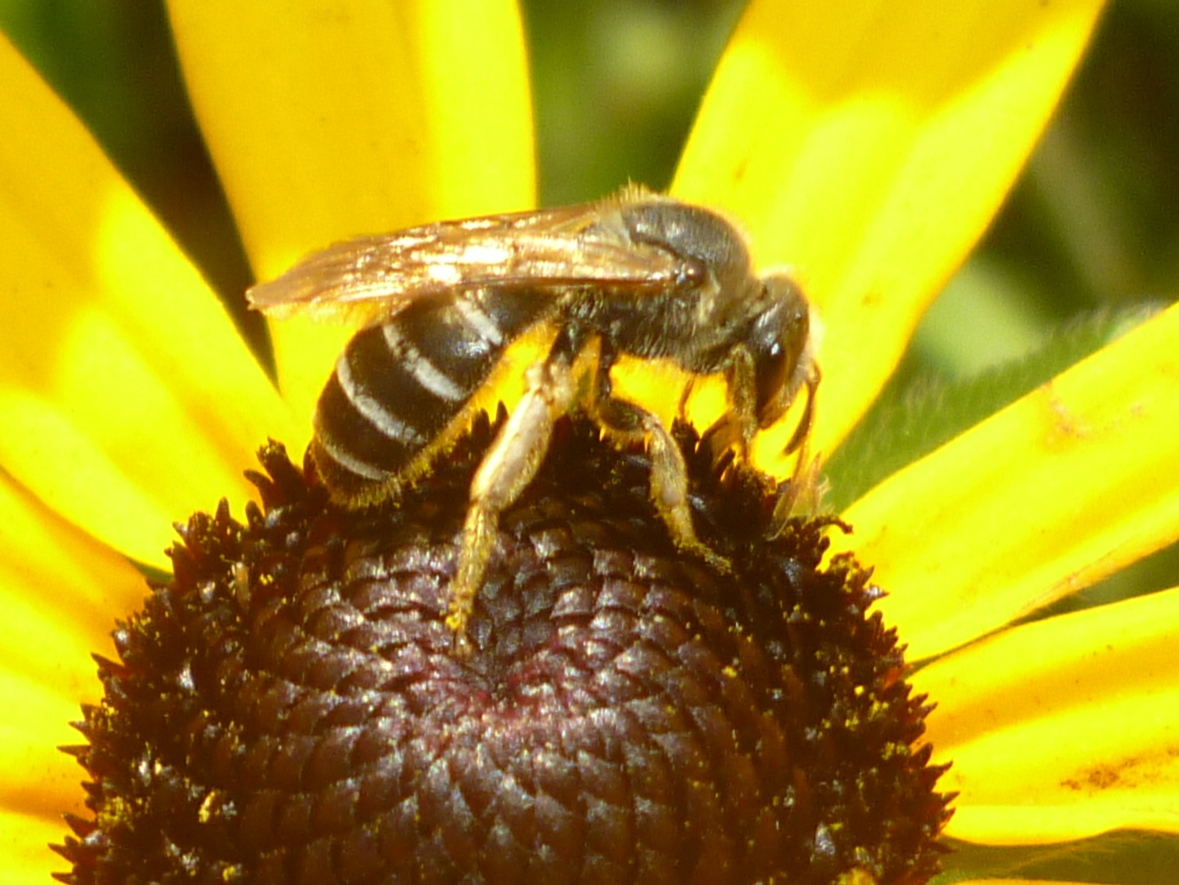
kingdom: Animalia
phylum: Arthropoda
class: Insecta
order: Hymenoptera
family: Halictidae
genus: Halictus
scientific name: Halictus rubicundus
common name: Orange-legged furrow bee
